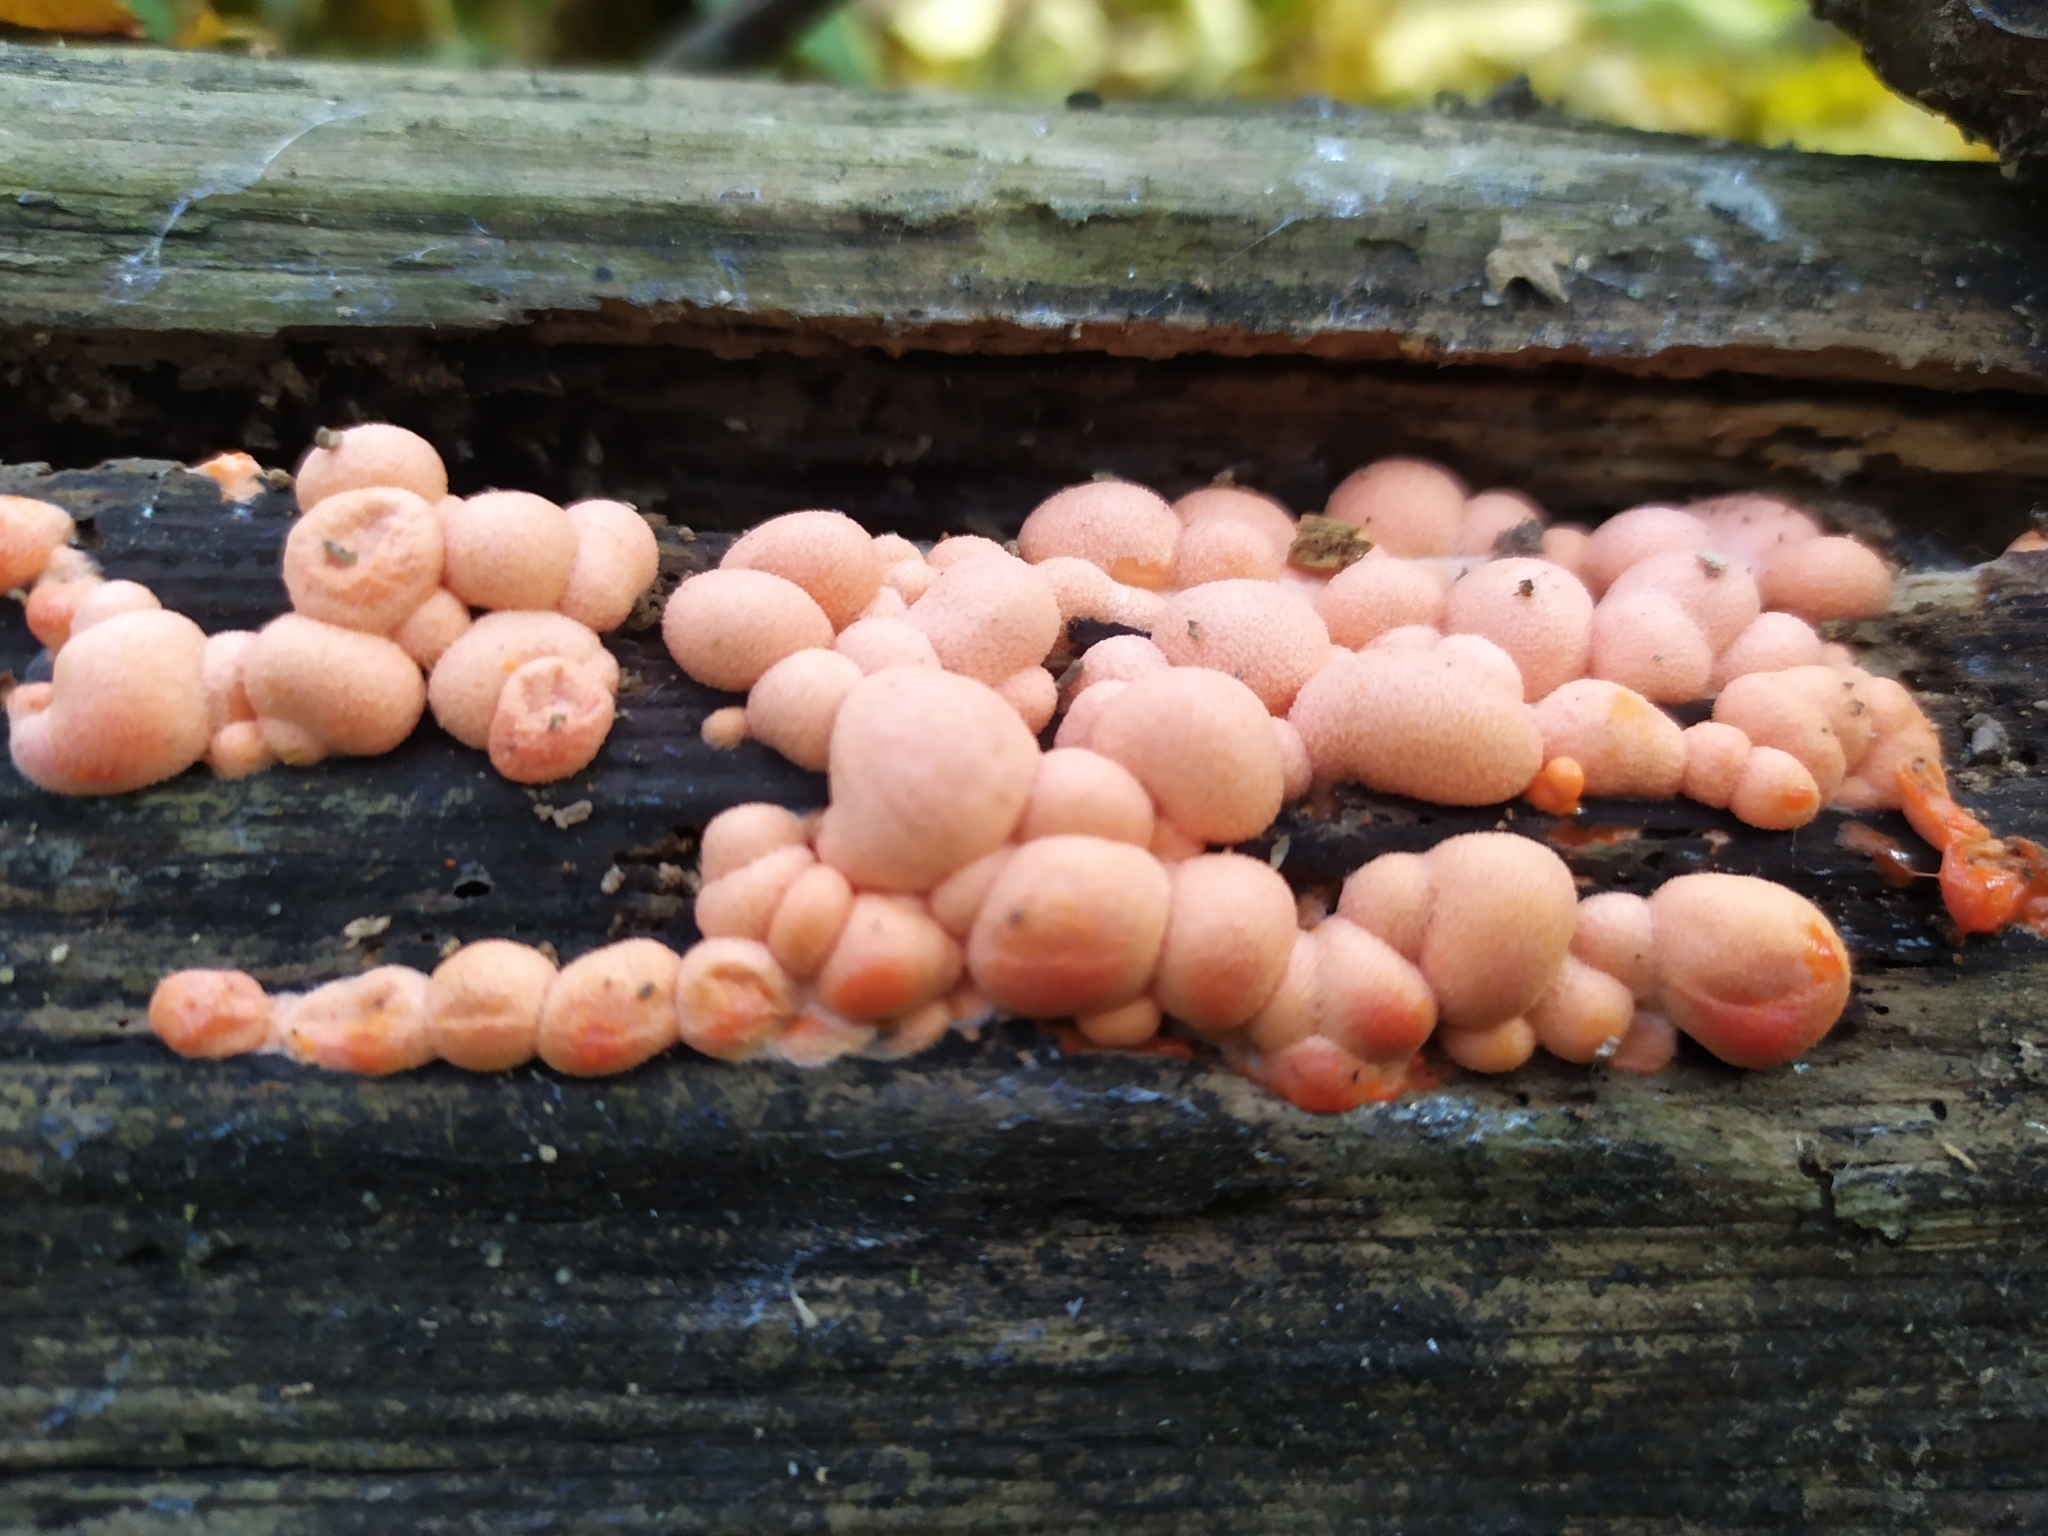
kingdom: Protozoa
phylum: Mycetozoa
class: Myxomycetes
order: Cribrariales
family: Tubiferaceae
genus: Lycogala
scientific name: Lycogala epidendrum
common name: Wolf's milk
